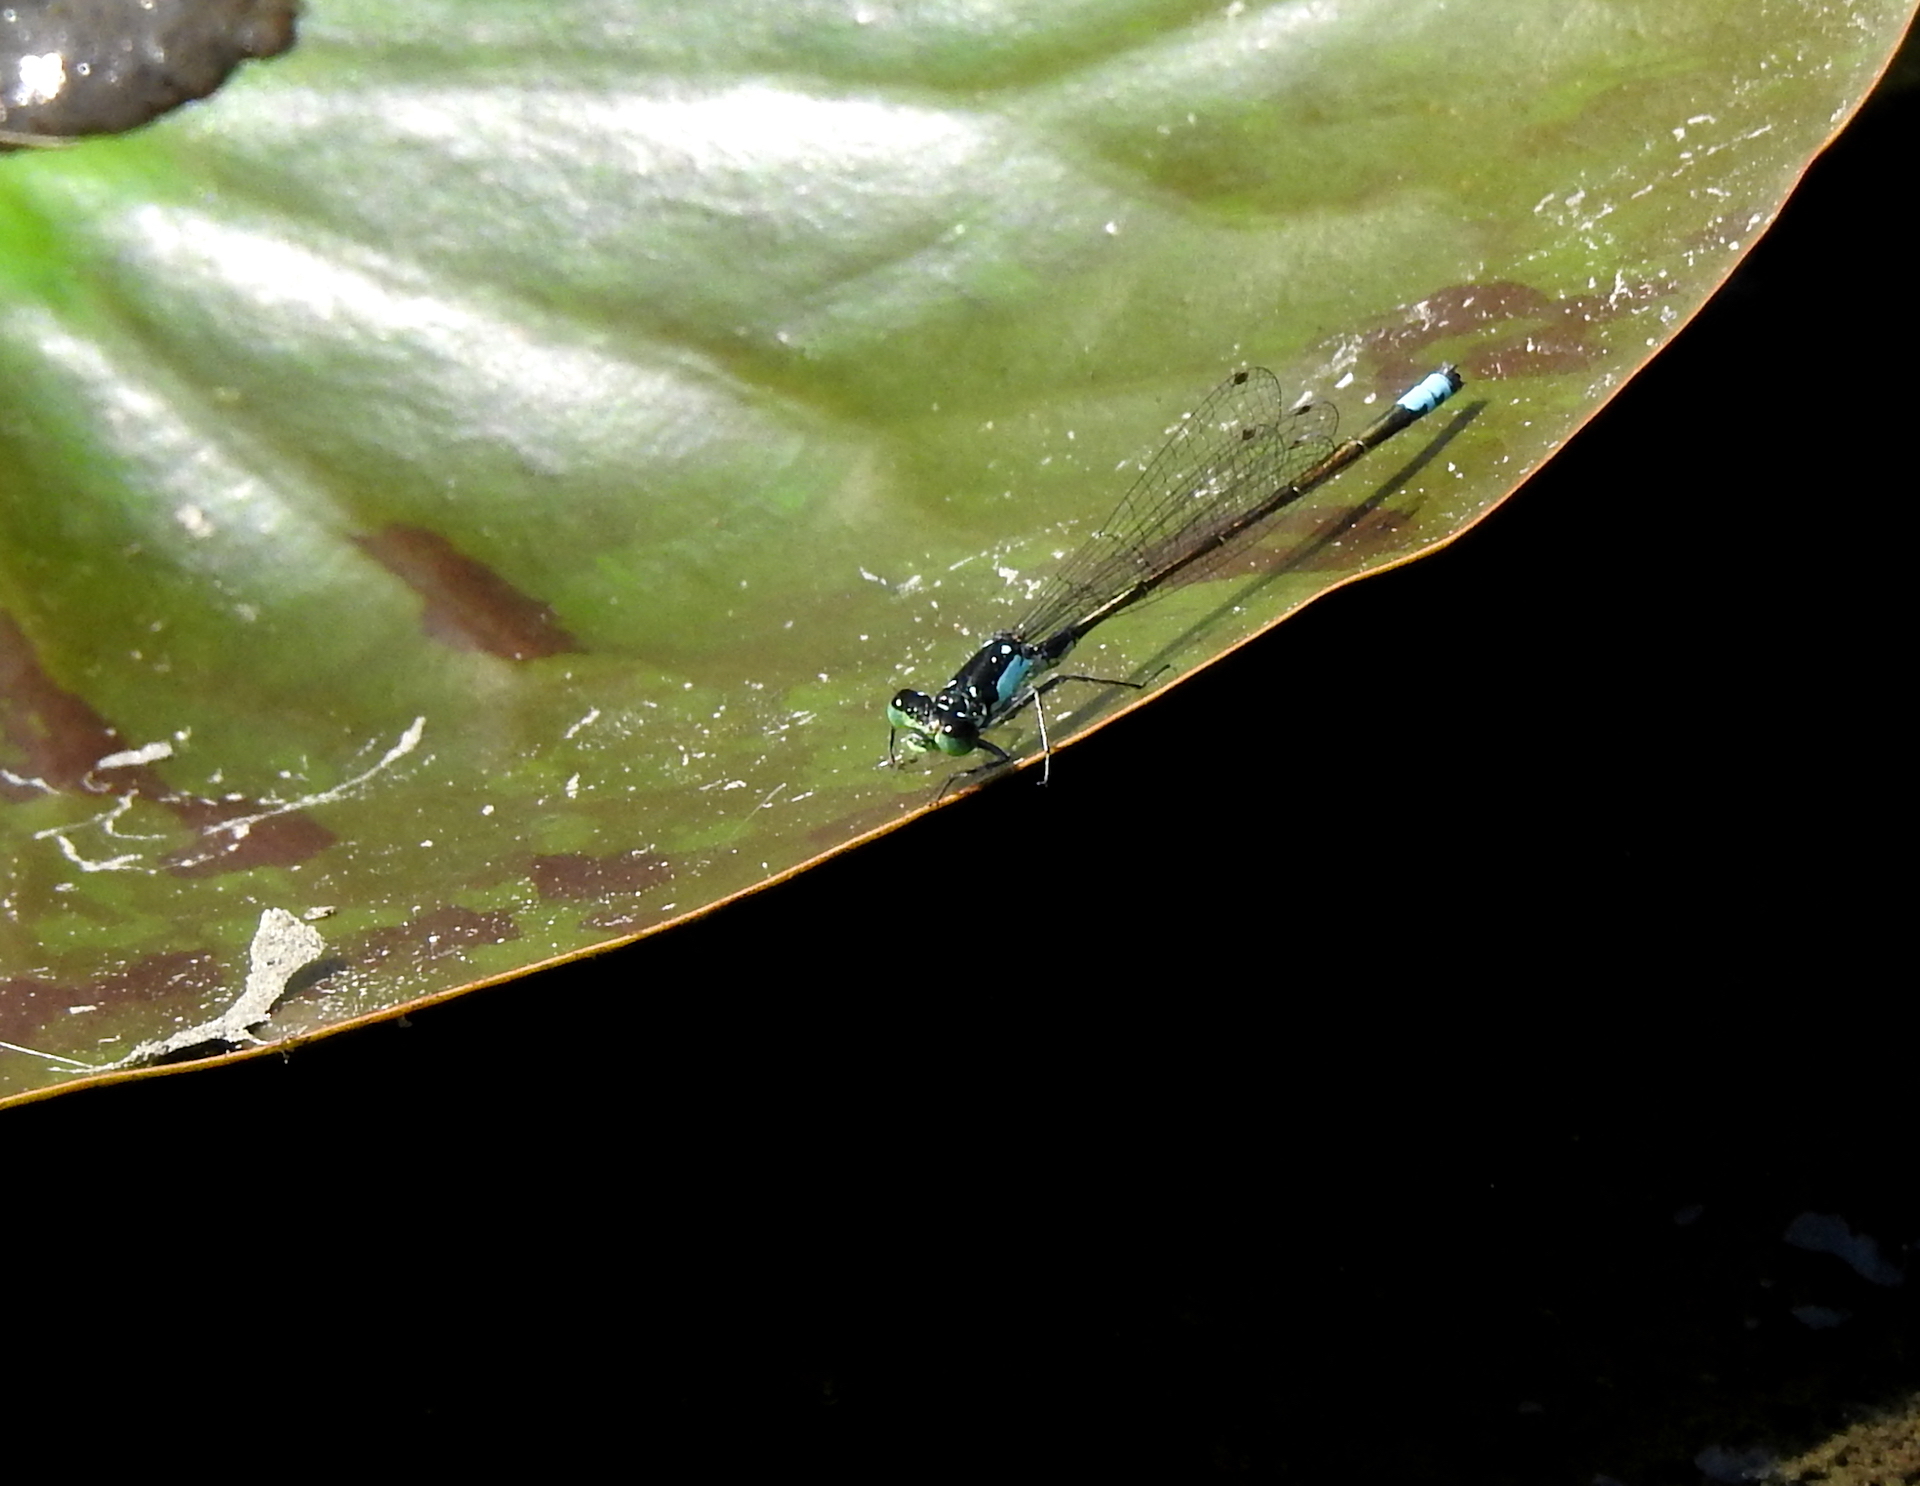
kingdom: Animalia
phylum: Arthropoda
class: Insecta
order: Odonata
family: Coenagrionidae
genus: Ischnura
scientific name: Ischnura cervula
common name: Pacific forktail
